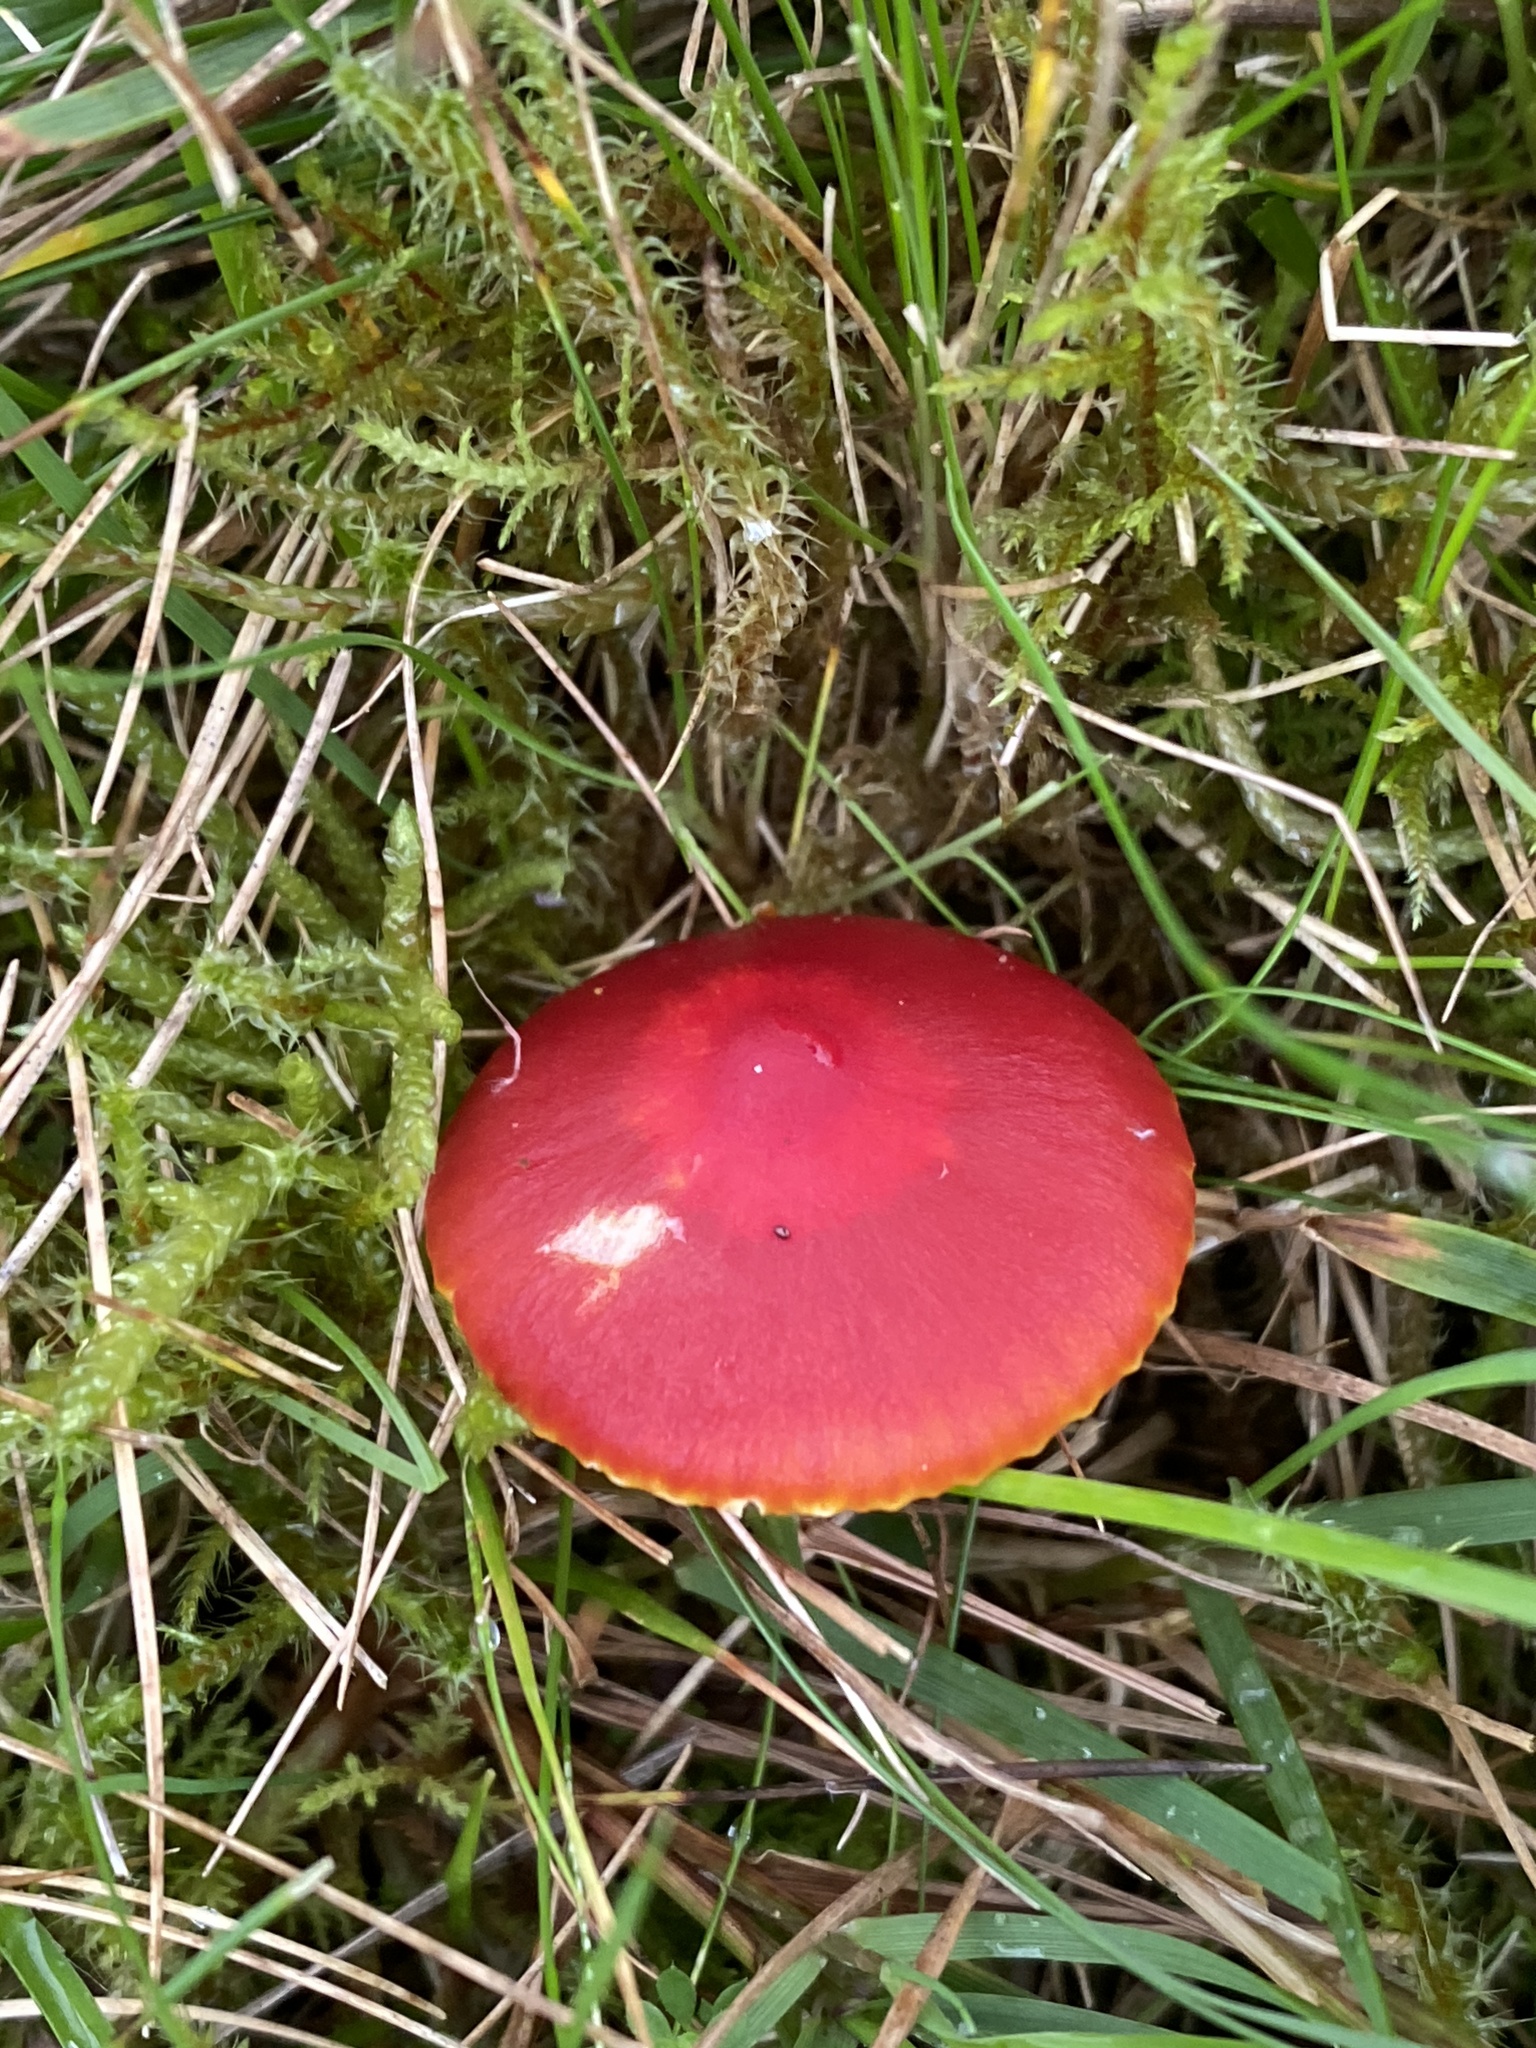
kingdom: Fungi
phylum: Basidiomycota
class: Agaricomycetes
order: Agaricales
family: Hygrophoraceae
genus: Hygrocybe
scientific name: Hygrocybe coccinea
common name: Scarlet hood
